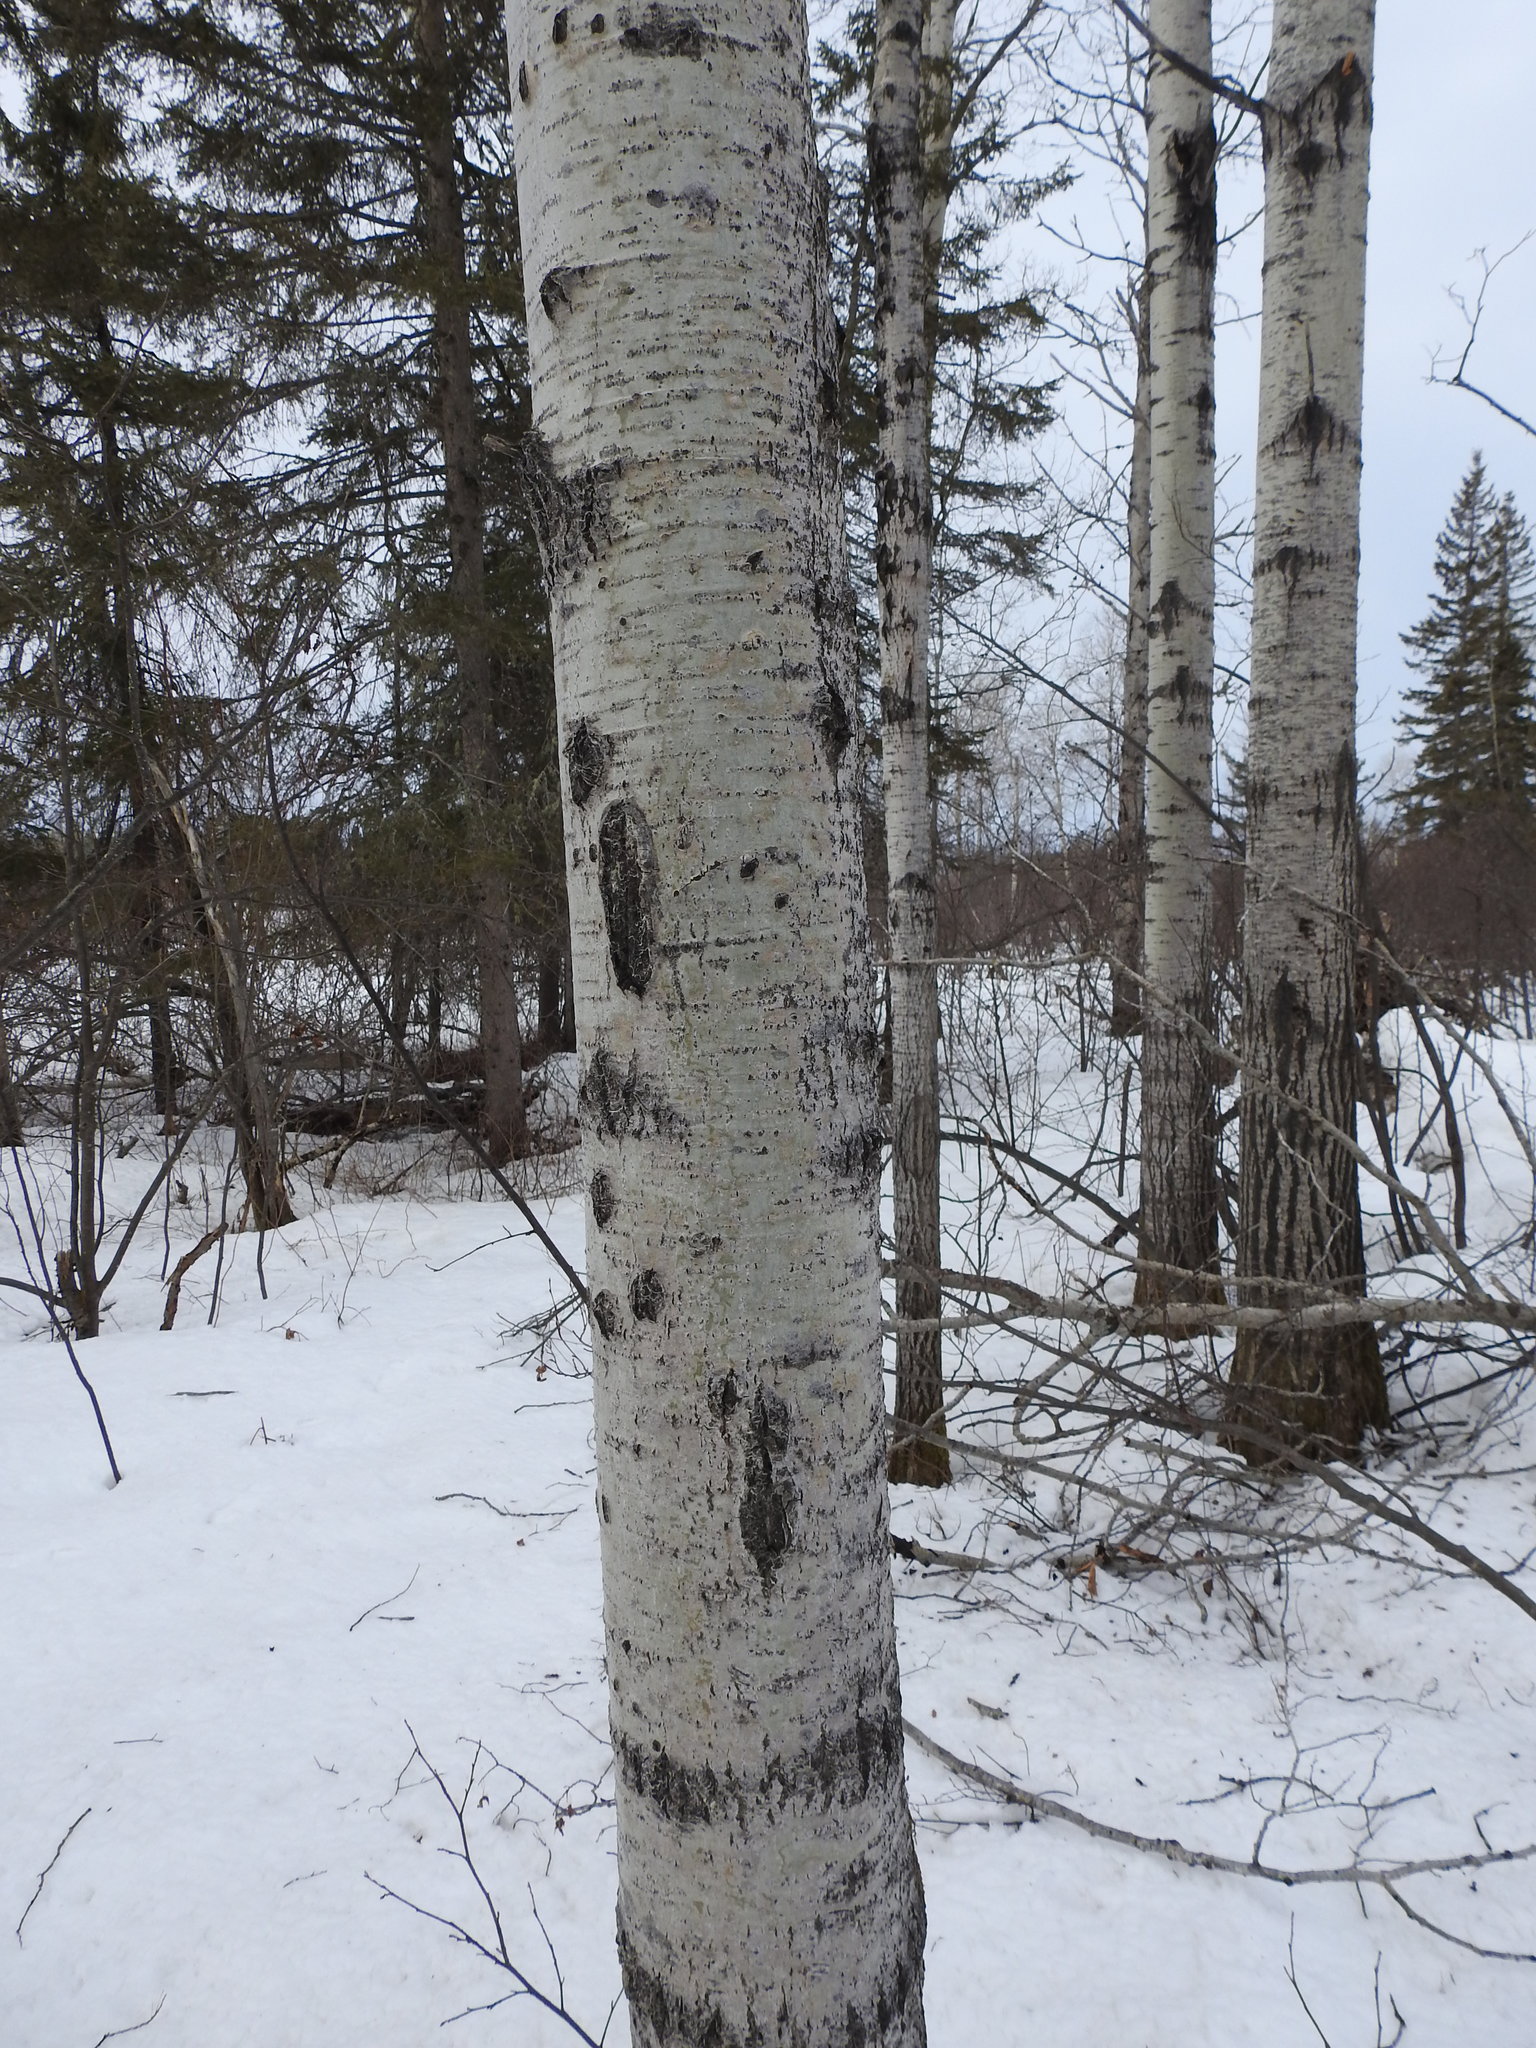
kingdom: Plantae
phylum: Tracheophyta
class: Magnoliopsida
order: Malpighiales
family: Salicaceae
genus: Populus
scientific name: Populus tremuloides
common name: Quaking aspen
